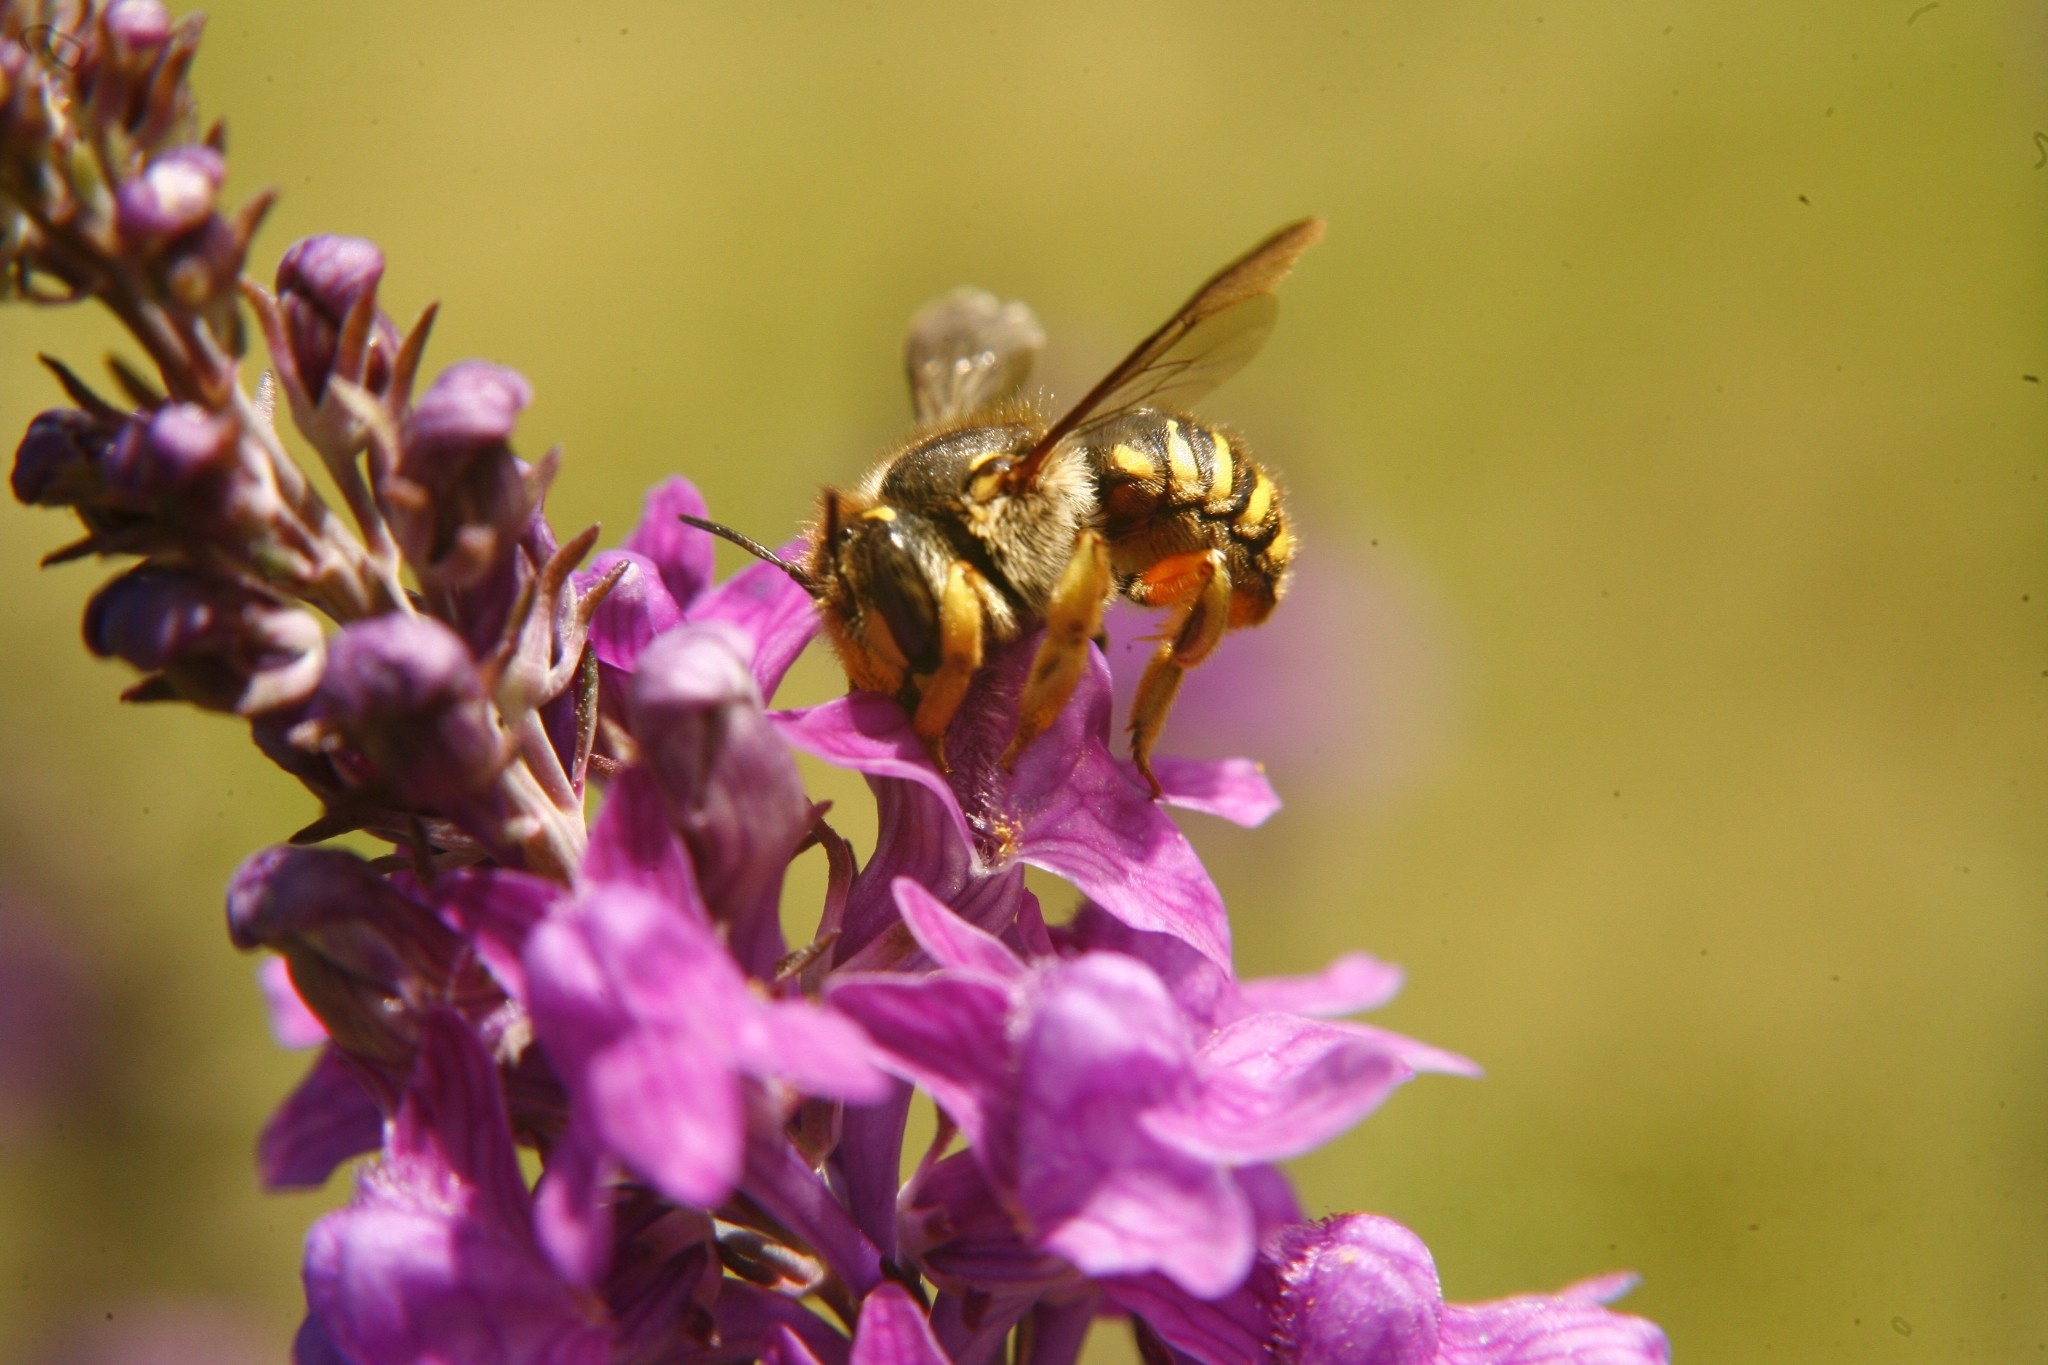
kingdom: Animalia
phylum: Arthropoda
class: Insecta
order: Hymenoptera
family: Megachilidae
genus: Anthidium
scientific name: Anthidium manicatum
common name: Wool carder bee
